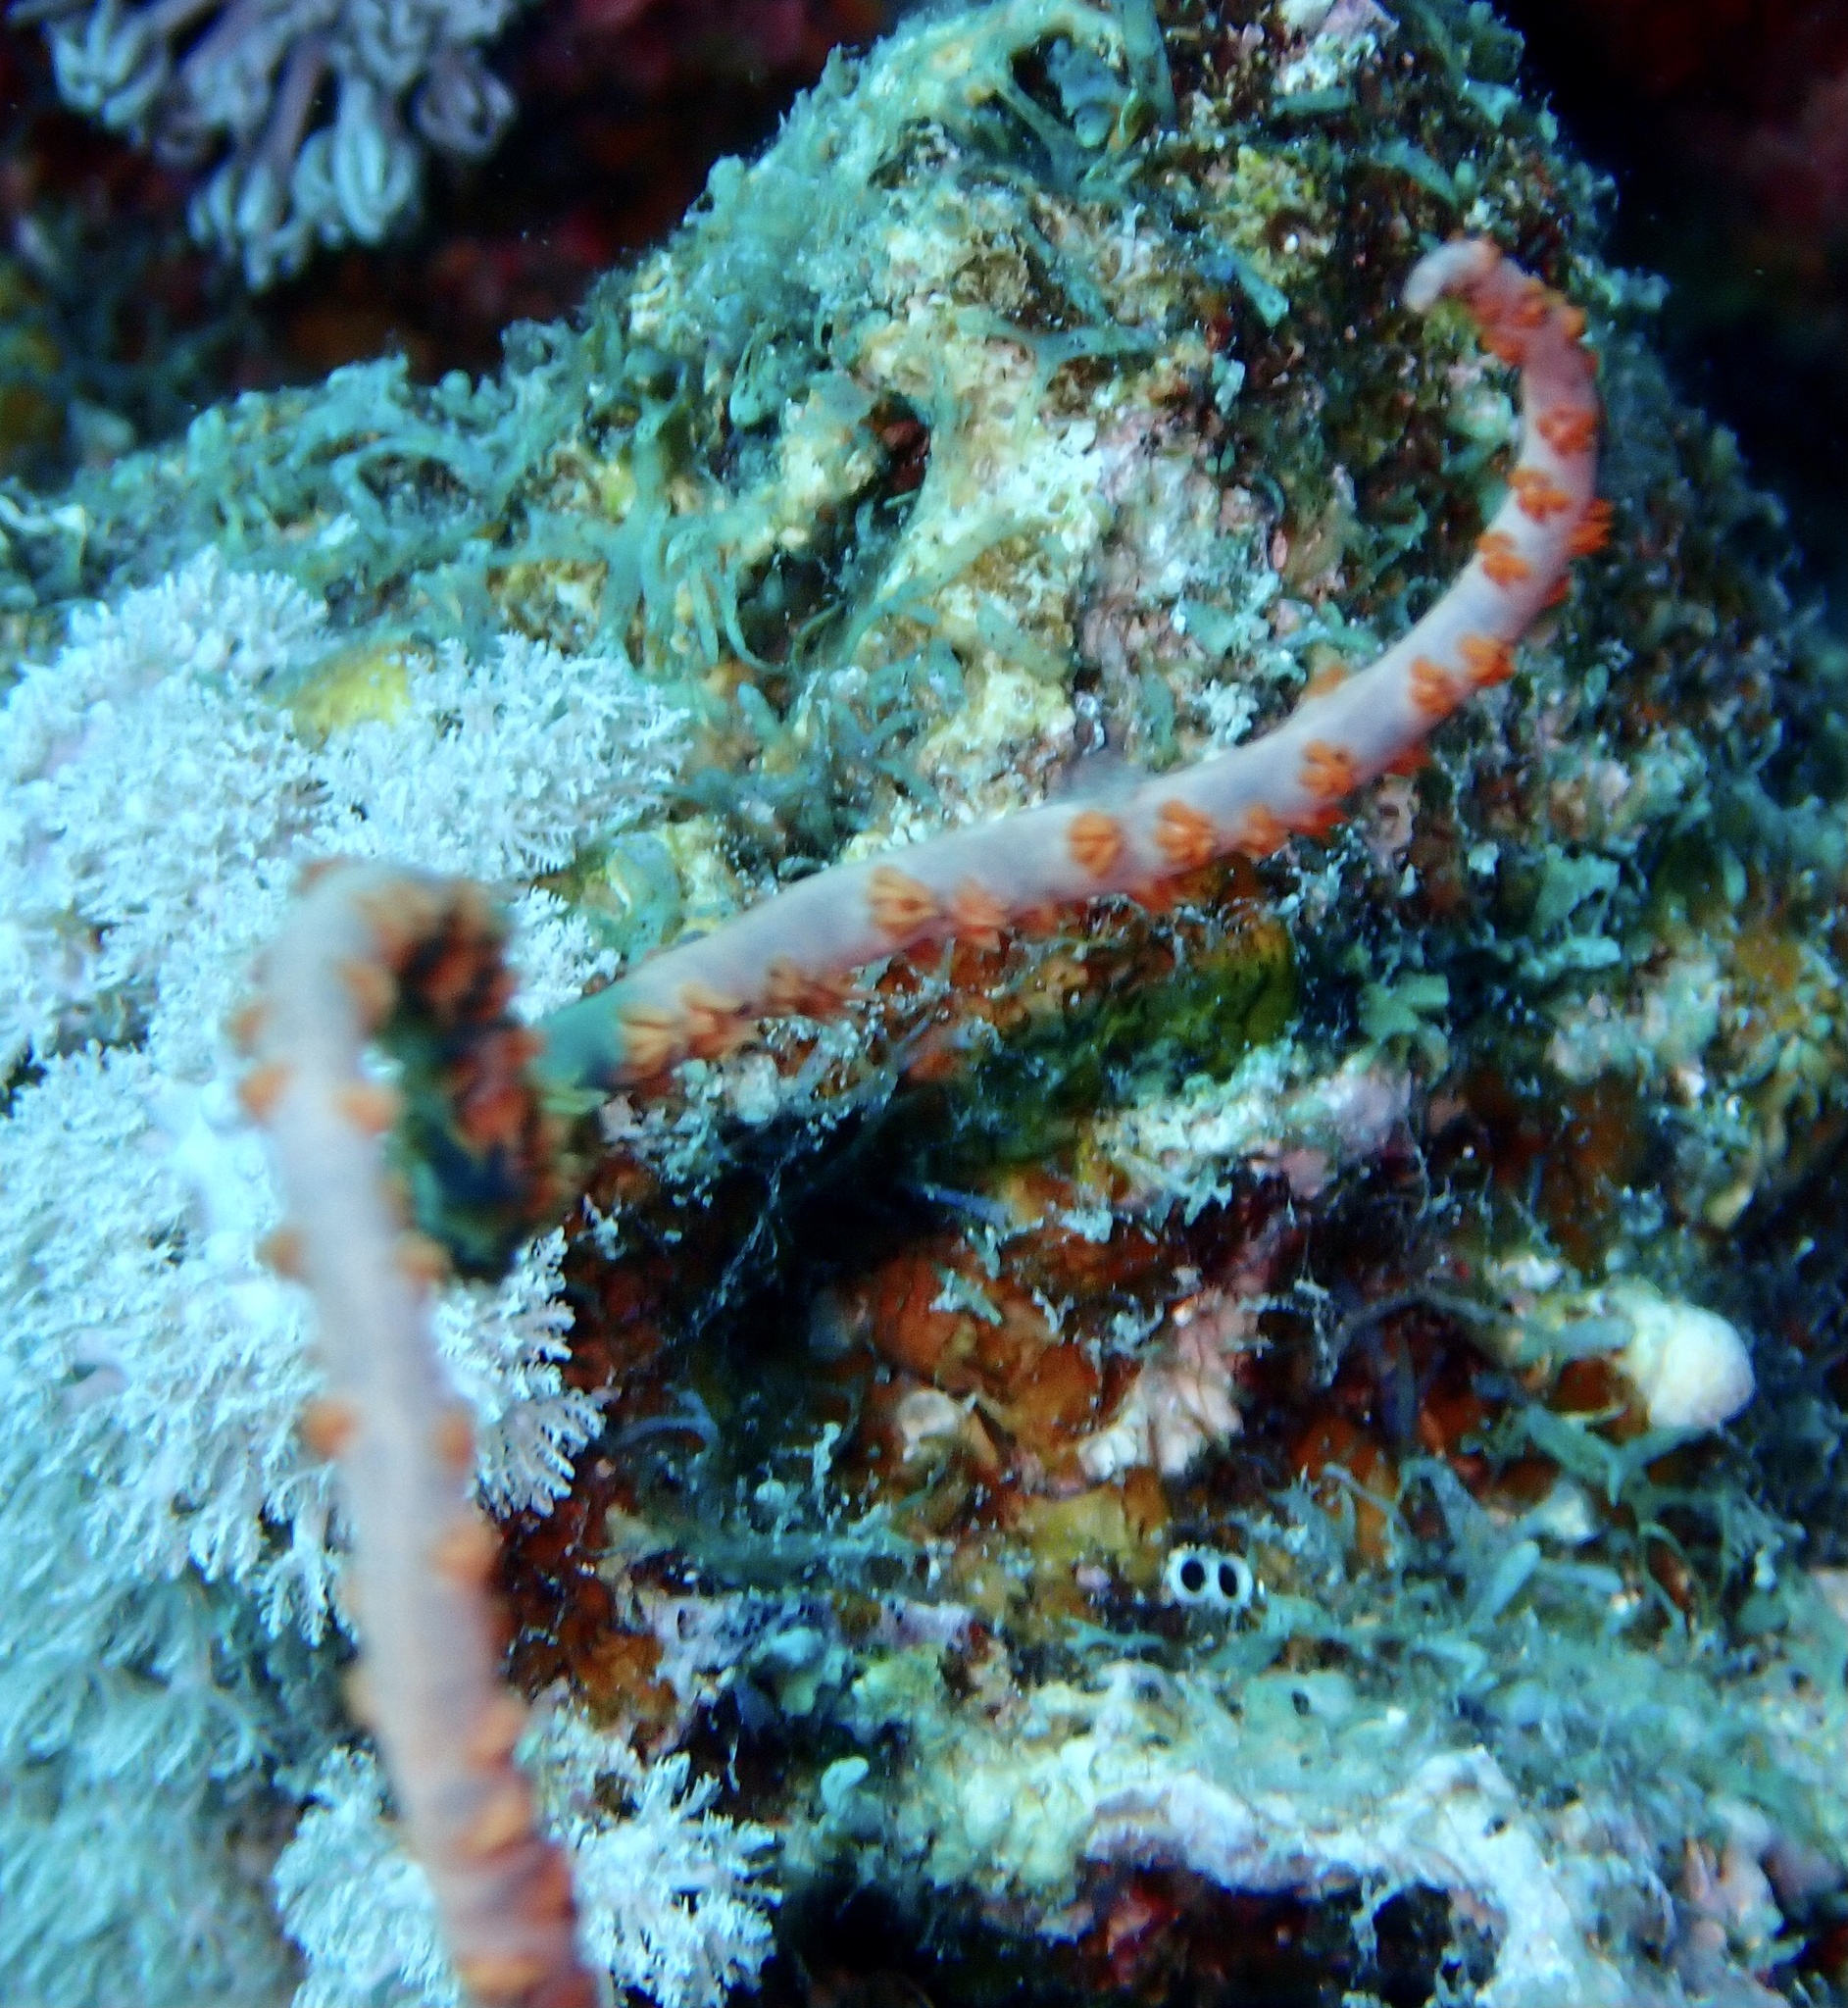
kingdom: Animalia
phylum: Cnidaria
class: Anthozoa
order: Antipatharia
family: Antipathidae
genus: Cirrhipathes
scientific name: Cirrhipathes
